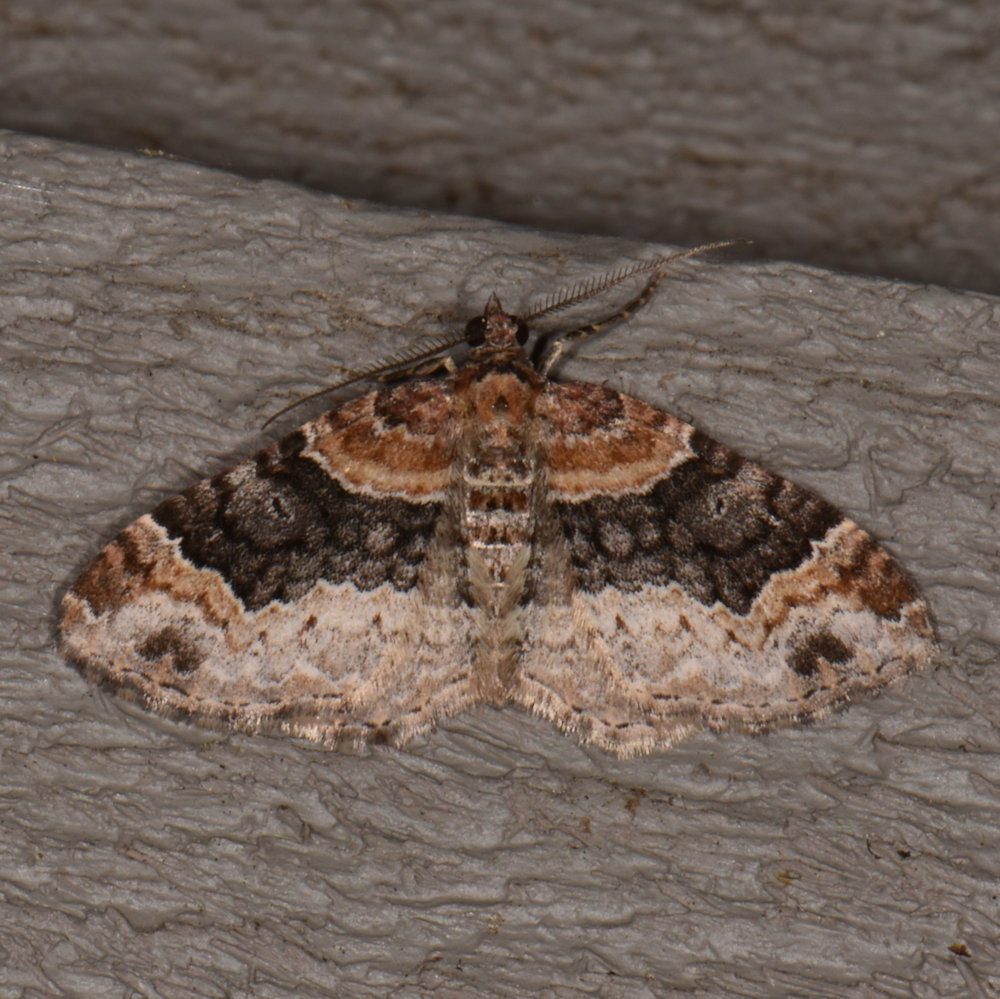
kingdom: Animalia
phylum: Arthropoda
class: Insecta
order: Lepidoptera
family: Geometridae
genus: Xanthorhoe
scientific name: Xanthorhoe ferrugata
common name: Dark-barred twin-spot carpet
